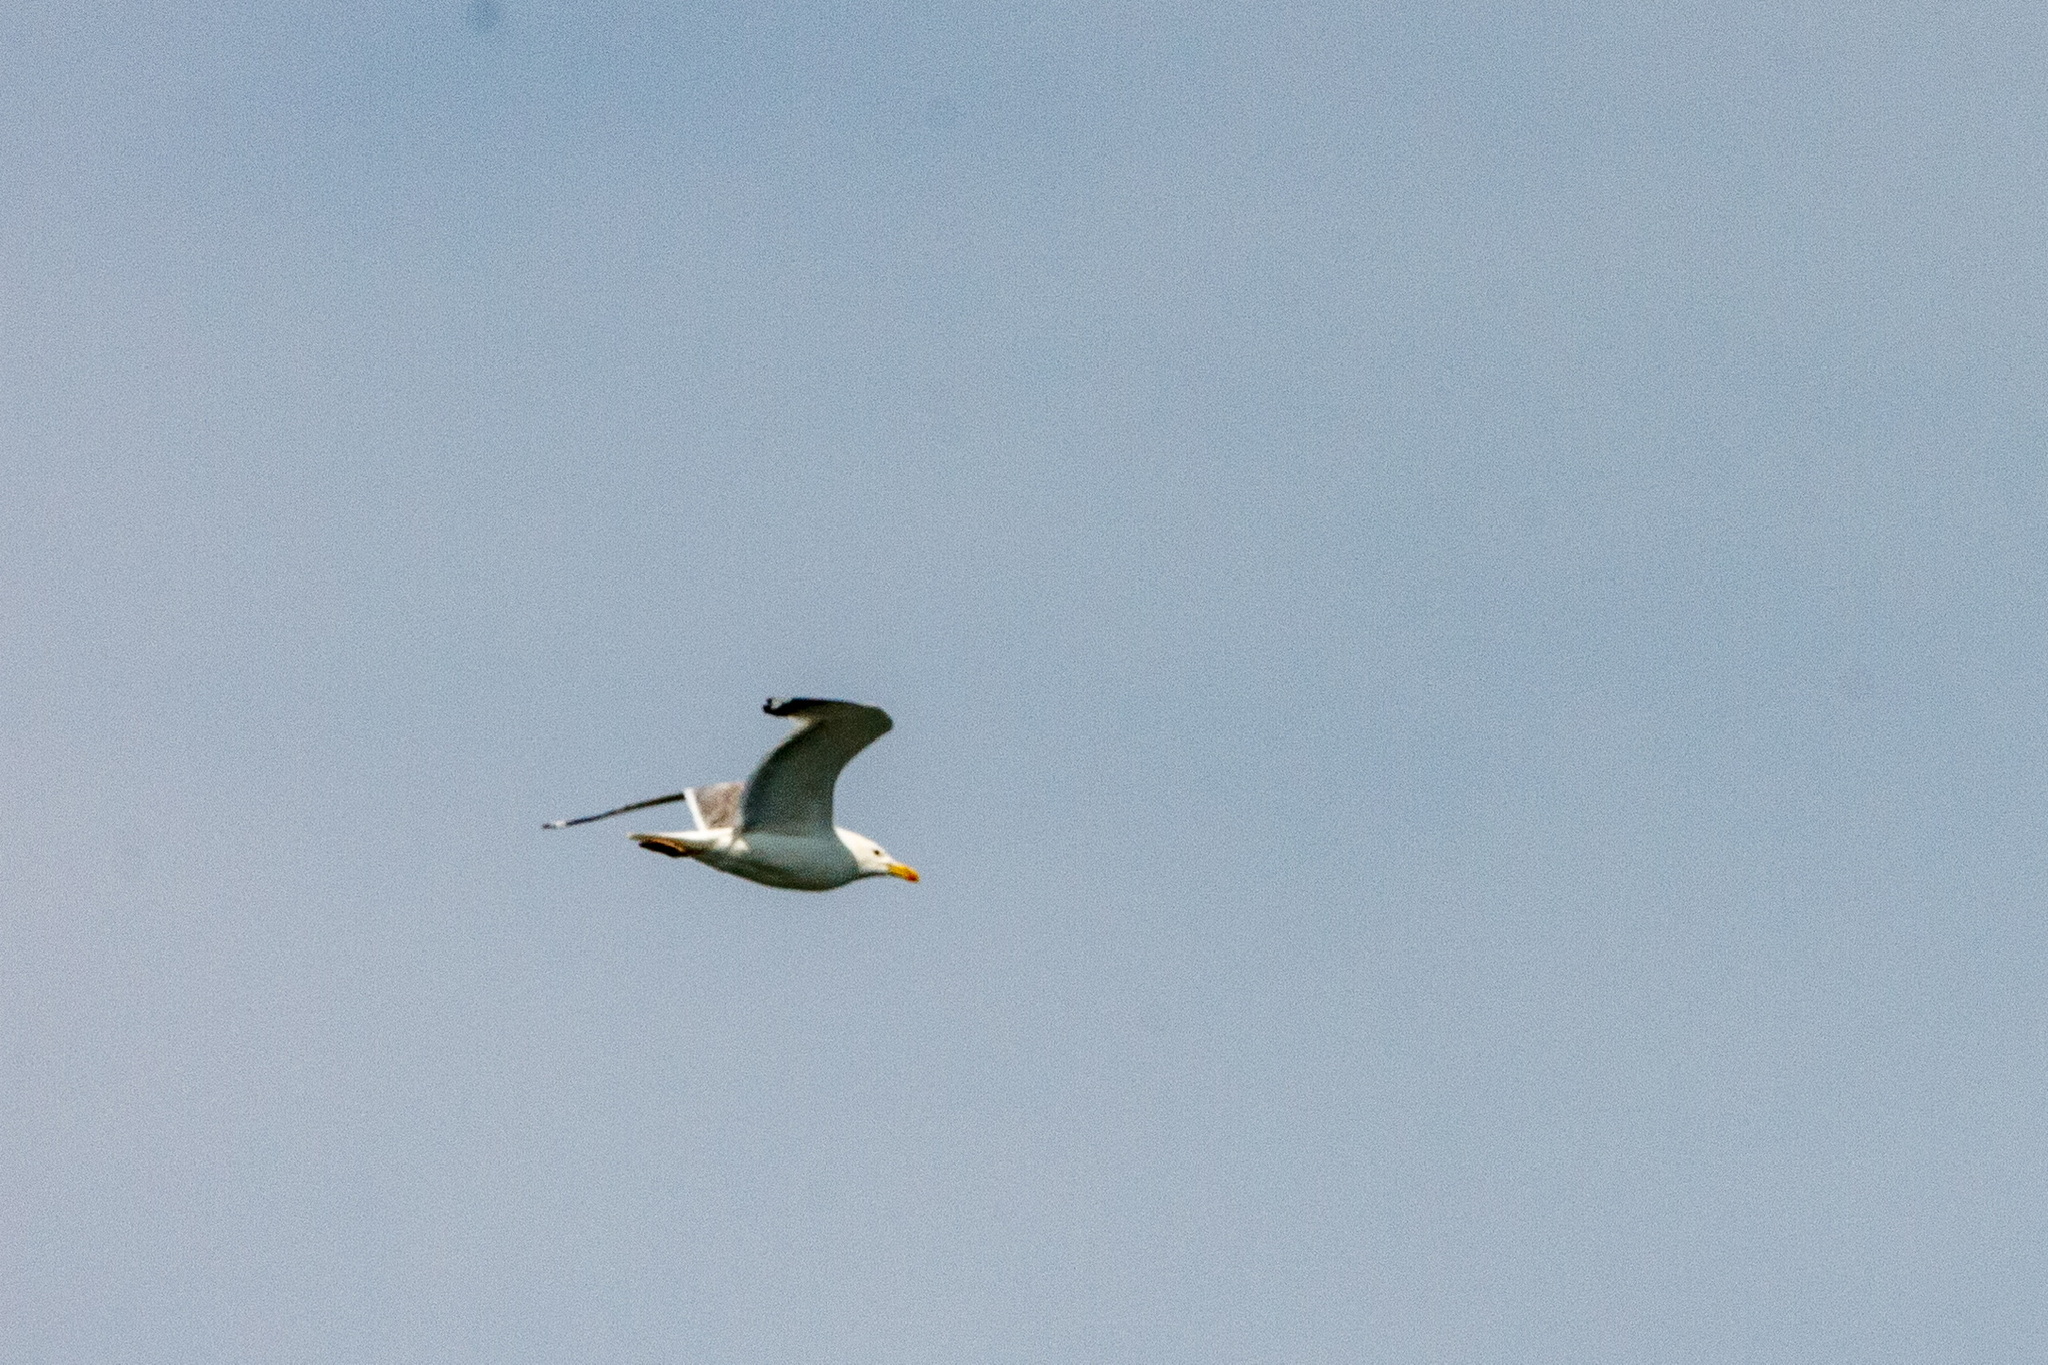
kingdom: Animalia
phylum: Chordata
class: Aves
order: Charadriiformes
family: Laridae
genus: Larus
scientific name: Larus cachinnans
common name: Caspian gull
